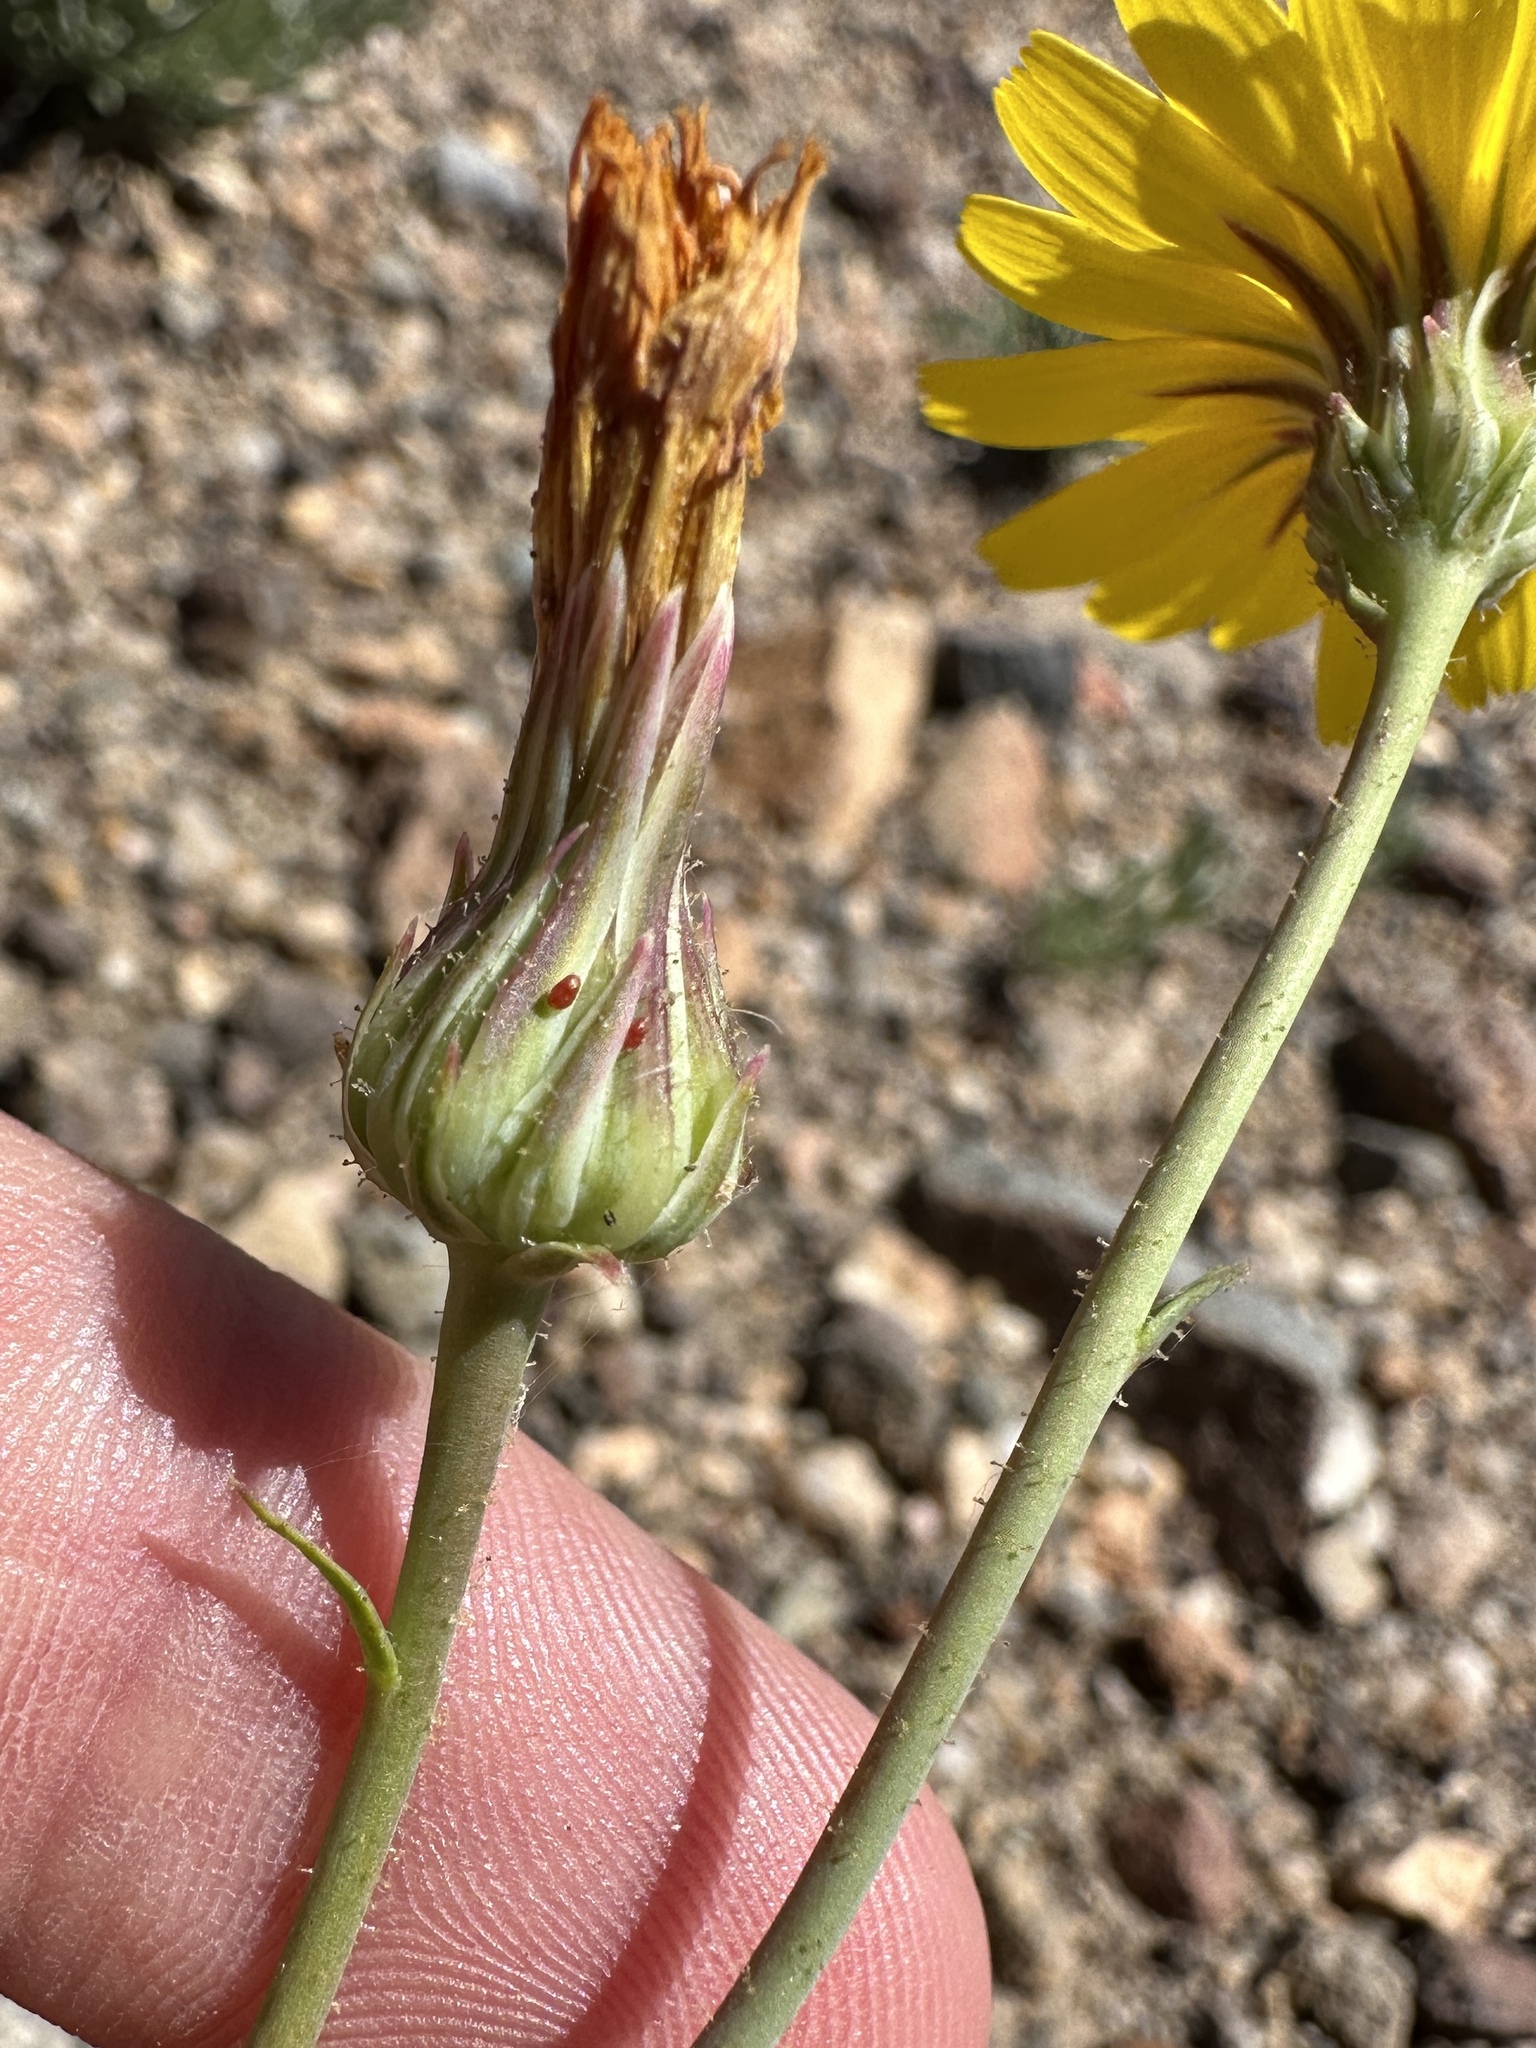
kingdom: Plantae
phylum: Tracheophyta
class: Magnoliopsida
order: Asterales
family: Asteraceae
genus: Malacothrix
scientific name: Malacothrix torreyi
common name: Torrey's desert-dandelion
